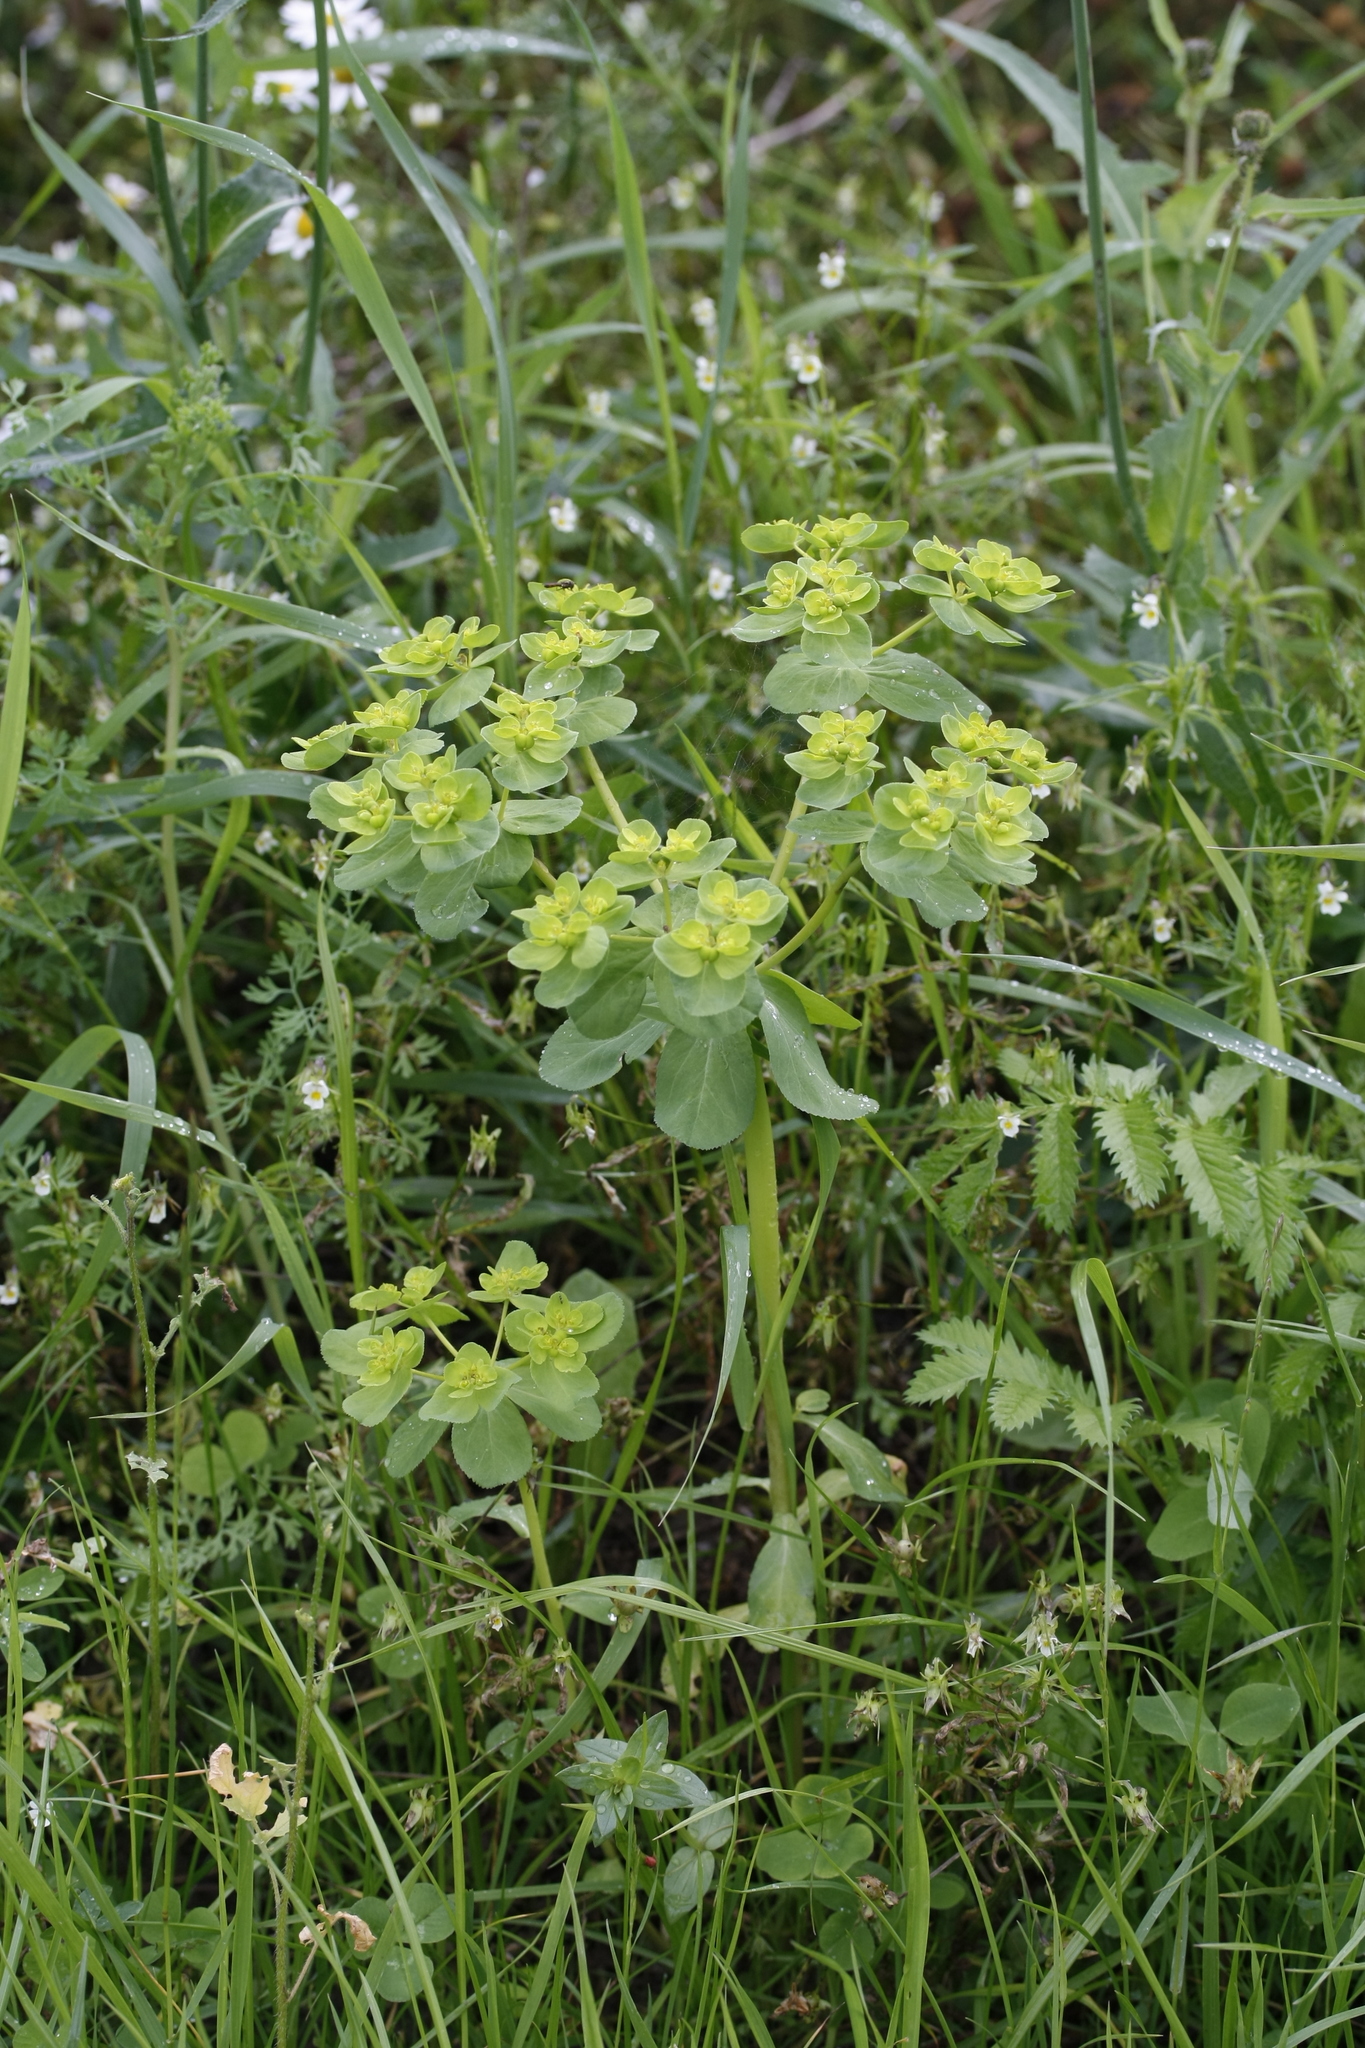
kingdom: Plantae
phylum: Tracheophyta
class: Magnoliopsida
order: Malpighiales
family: Euphorbiaceae
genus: Euphorbia
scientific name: Euphorbia helioscopia
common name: Sun spurge
